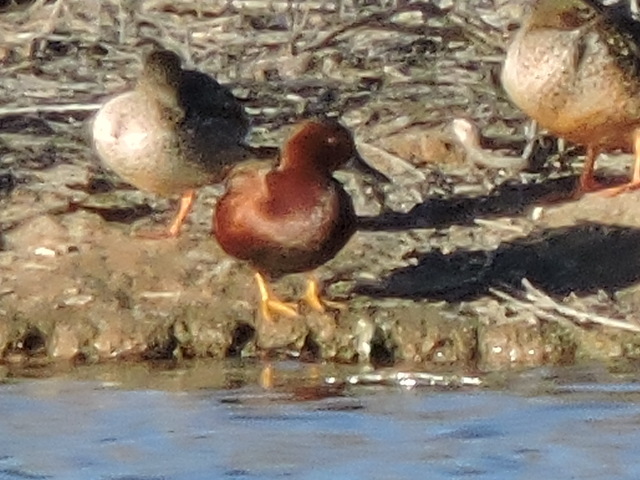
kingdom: Animalia
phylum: Chordata
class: Aves
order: Anseriformes
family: Anatidae
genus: Spatula
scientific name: Spatula cyanoptera
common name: Cinnamon teal
